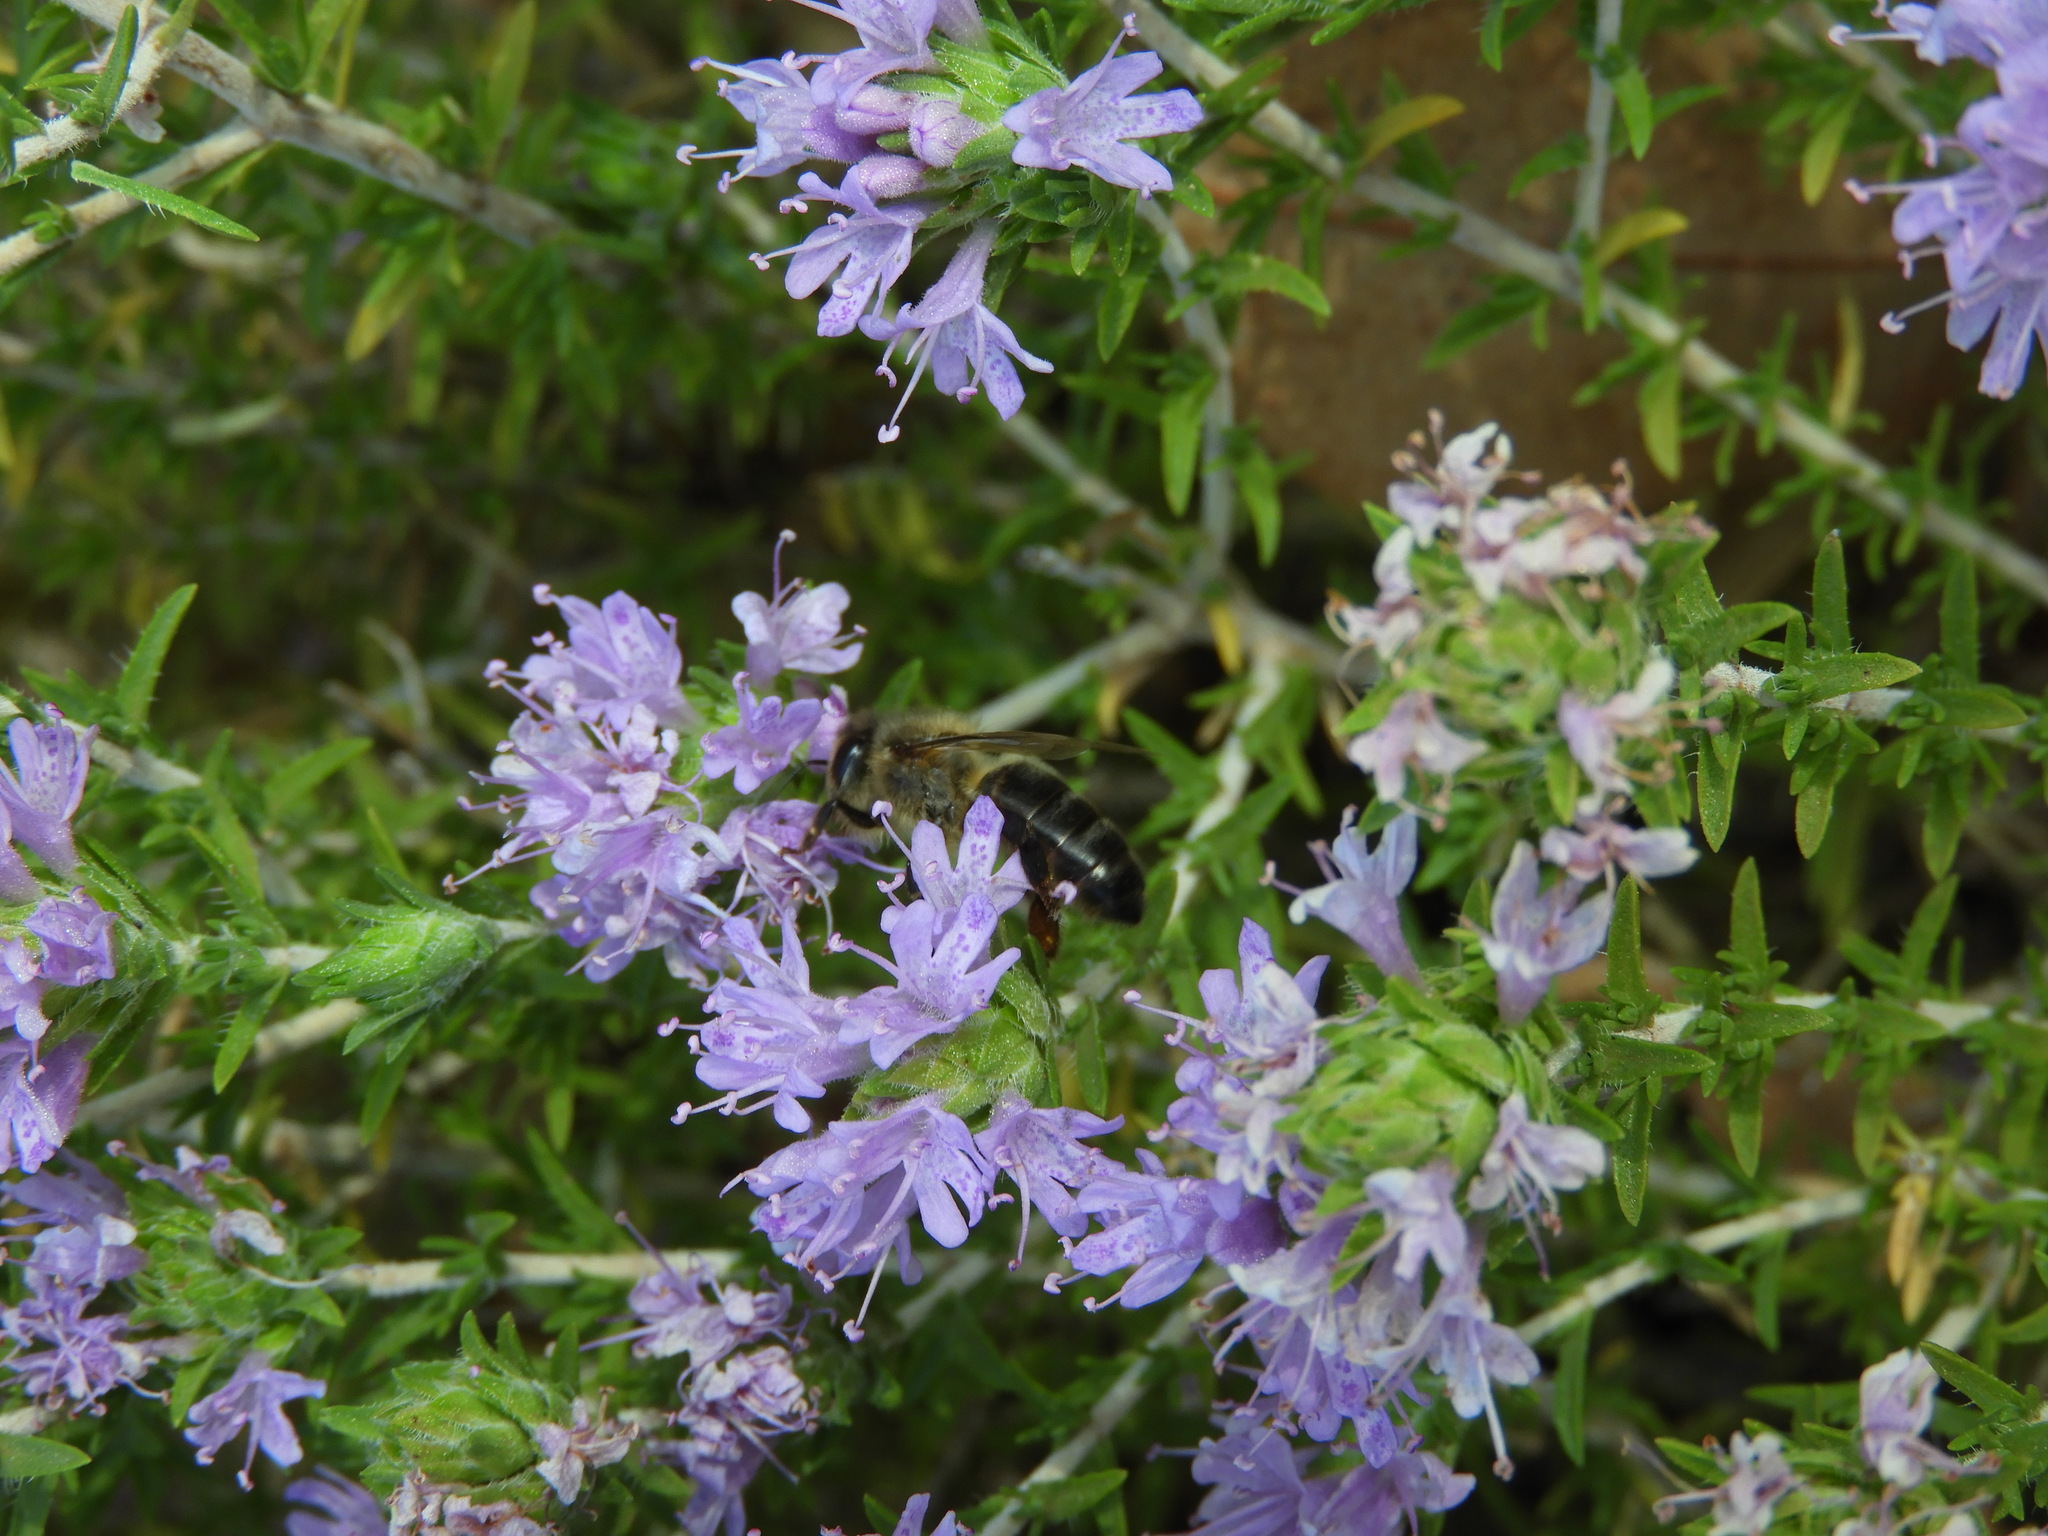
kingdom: Plantae
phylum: Tracheophyta
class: Magnoliopsida
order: Lamiales
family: Lamiaceae
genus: Thymbra
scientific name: Thymbra capitata
